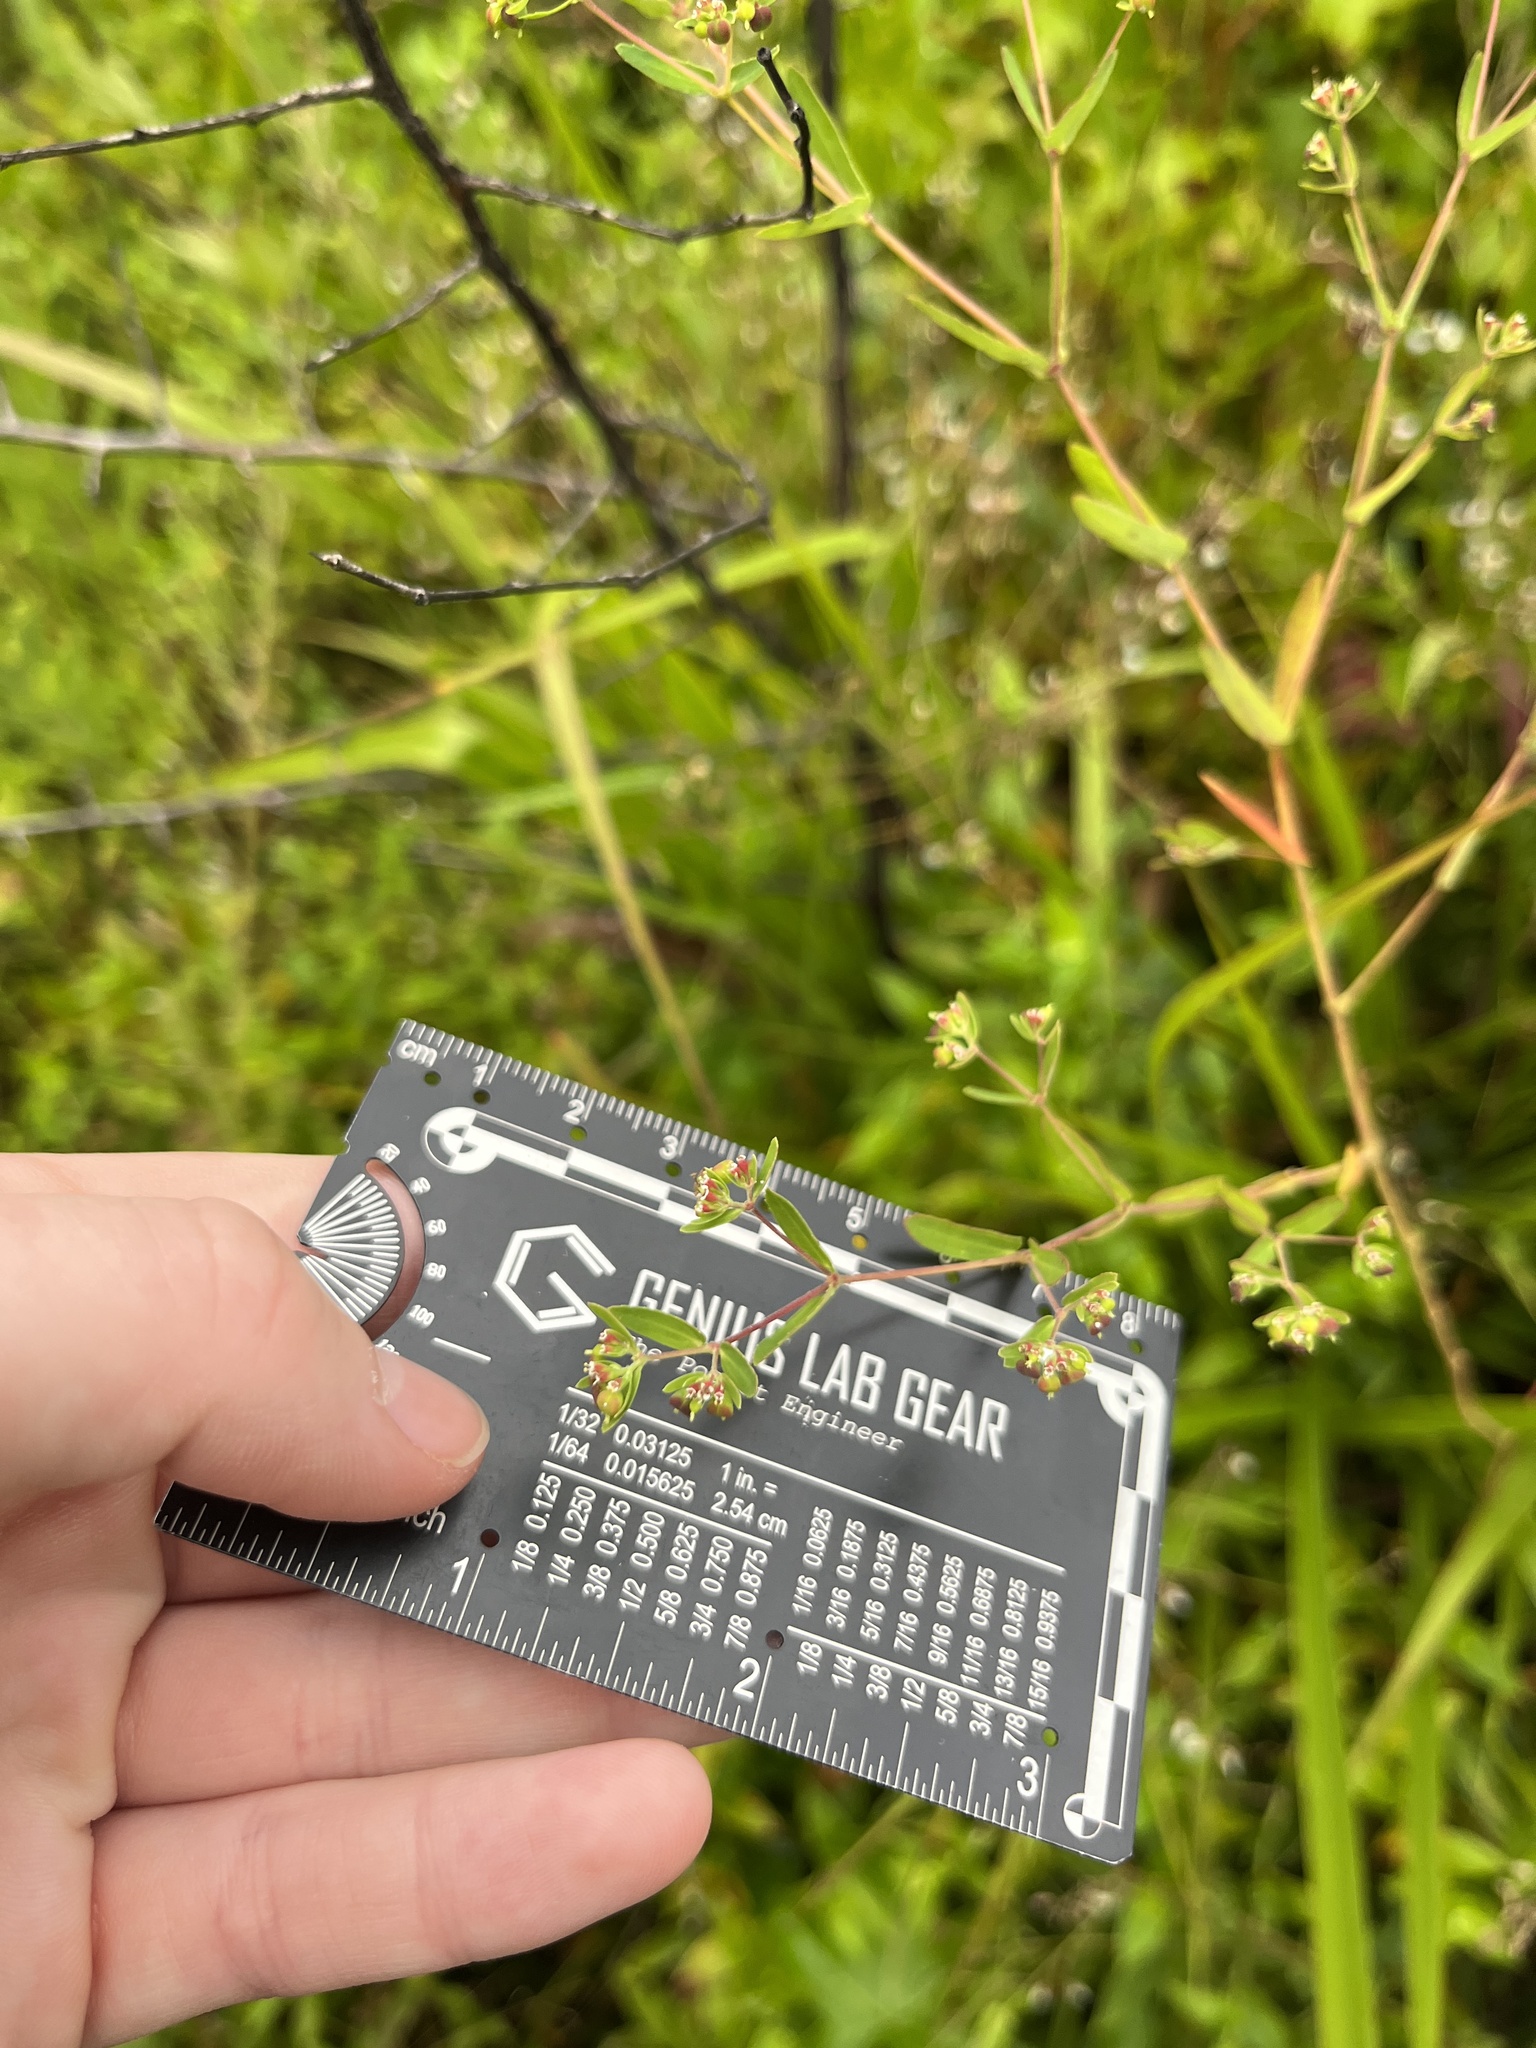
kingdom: Plantae
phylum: Tracheophyta
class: Magnoliopsida
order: Malpighiales
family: Euphorbiaceae
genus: Euphorbia
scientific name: Euphorbia nutans
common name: Eyebane
